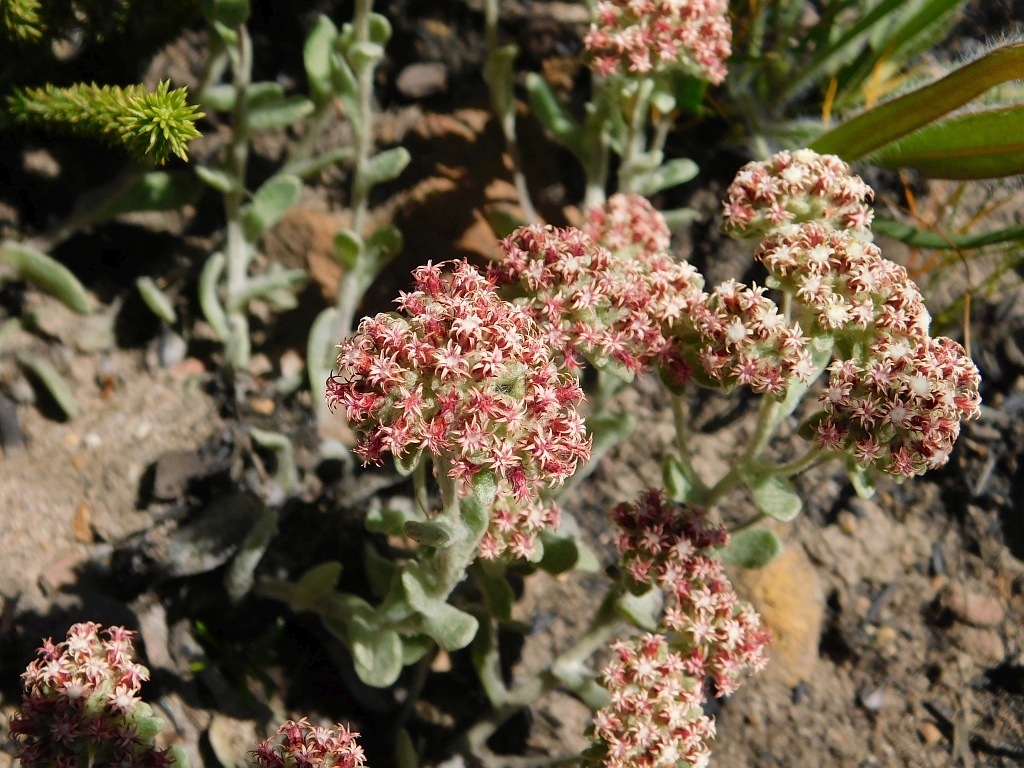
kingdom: Plantae
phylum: Tracheophyta
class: Magnoliopsida
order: Asterales
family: Asteraceae
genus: Helichrysum
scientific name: Helichrysum spiralepis
